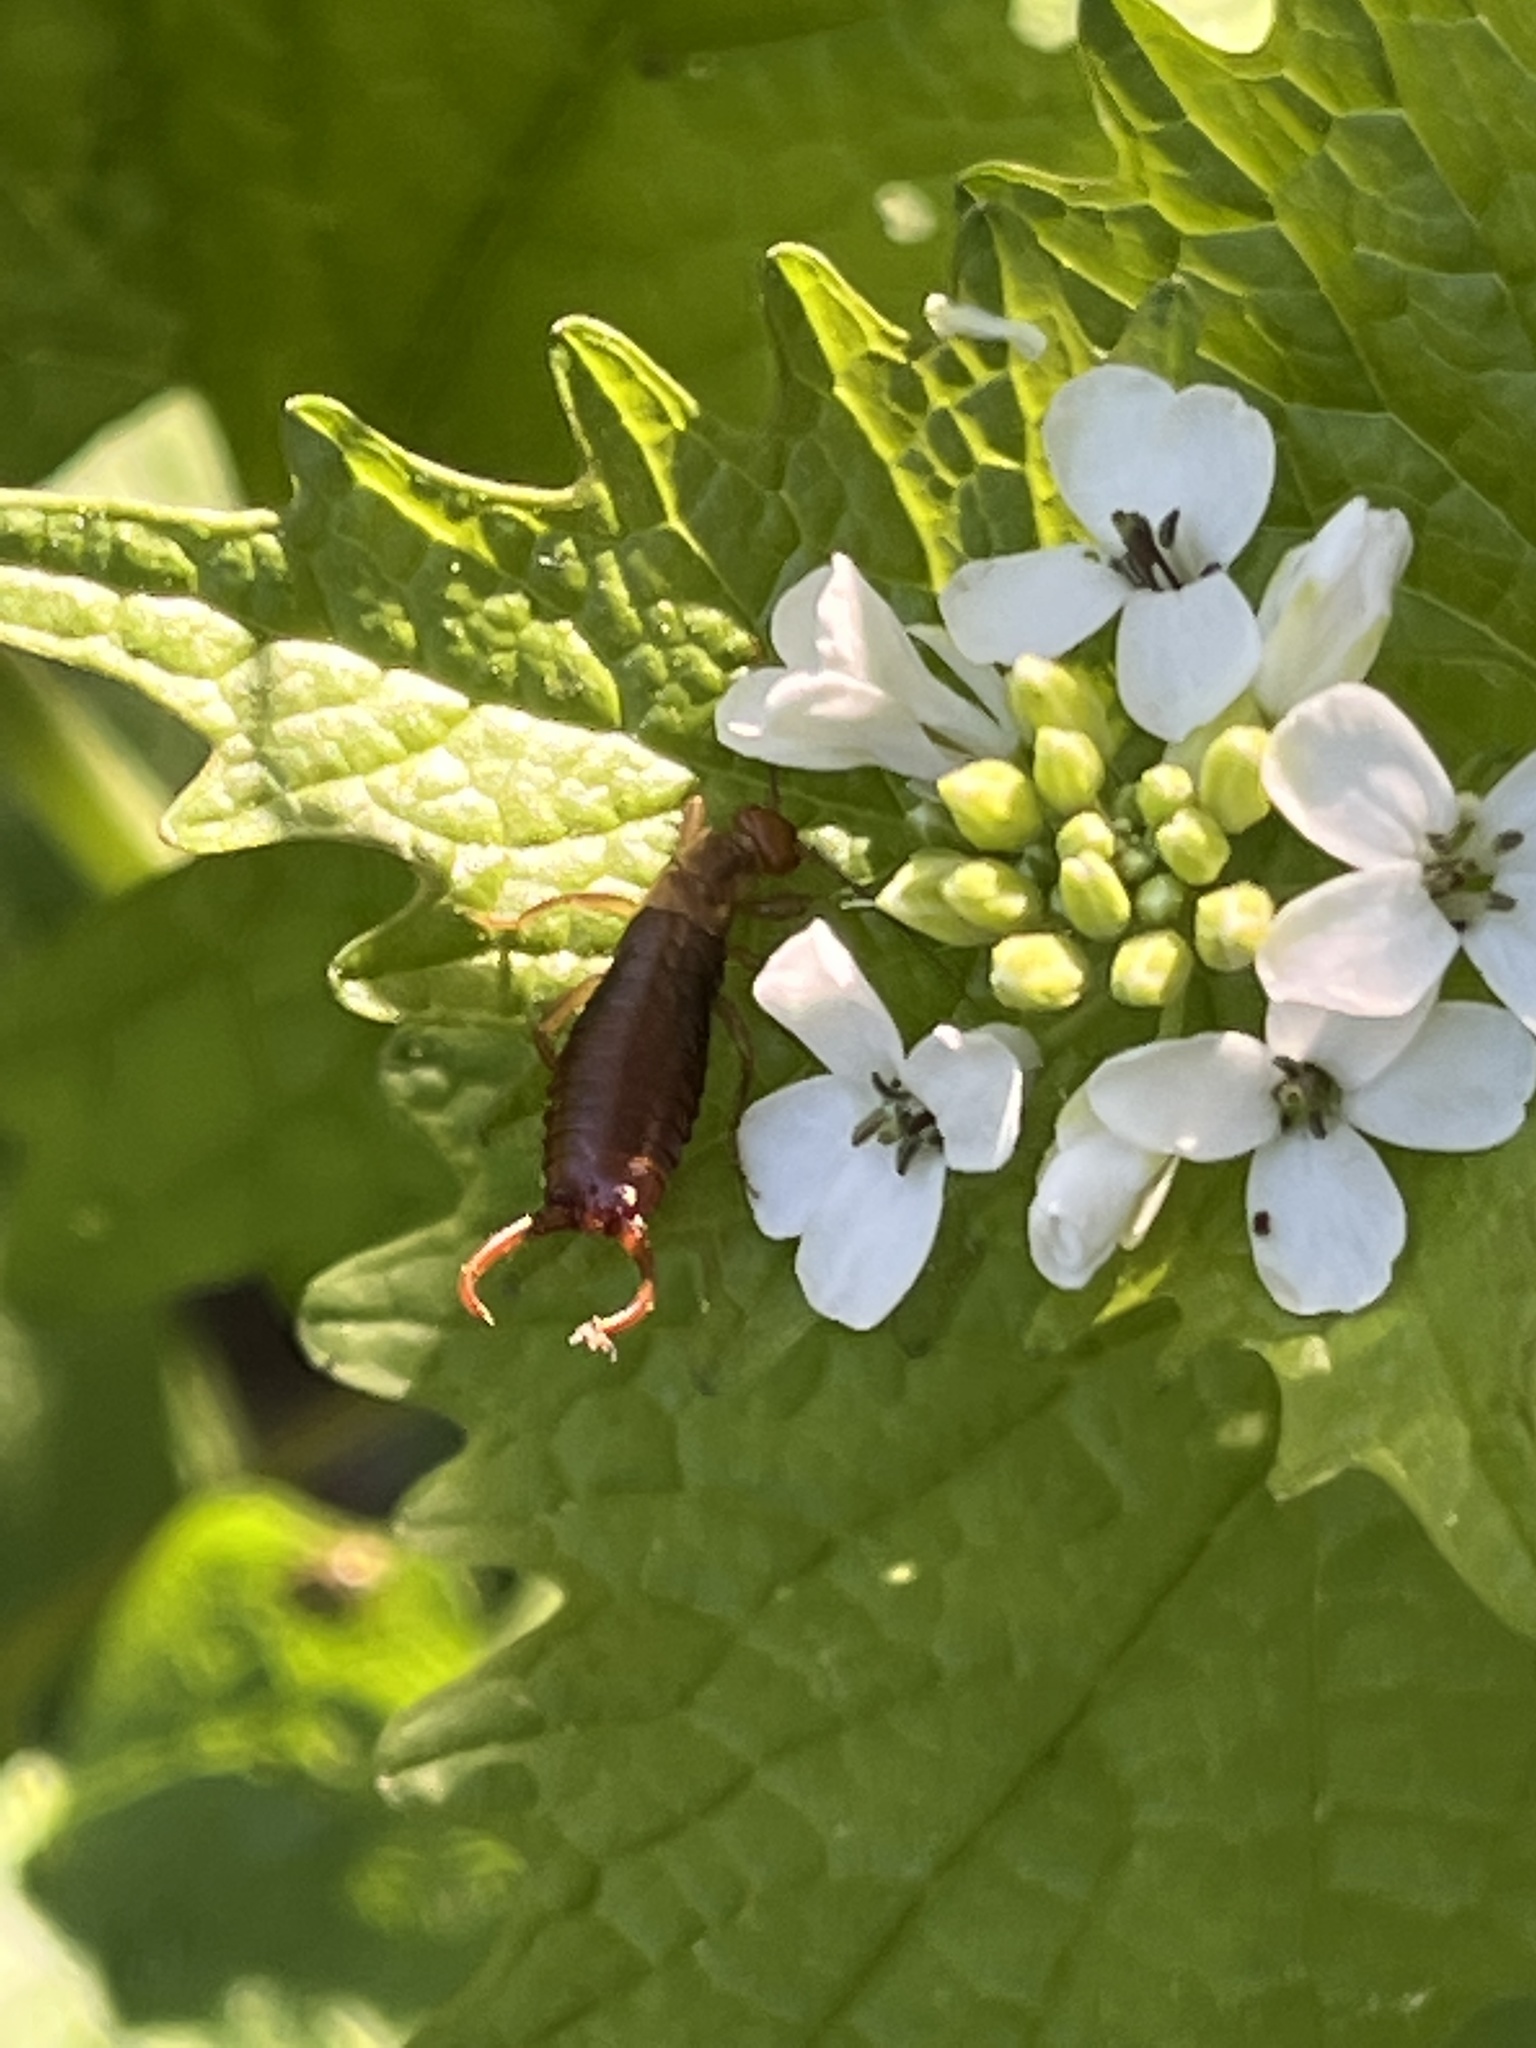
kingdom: Animalia
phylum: Arthropoda
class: Insecta
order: Dermaptera
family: Forficulidae
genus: Chelidurella
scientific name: Chelidurella acanthopygia
